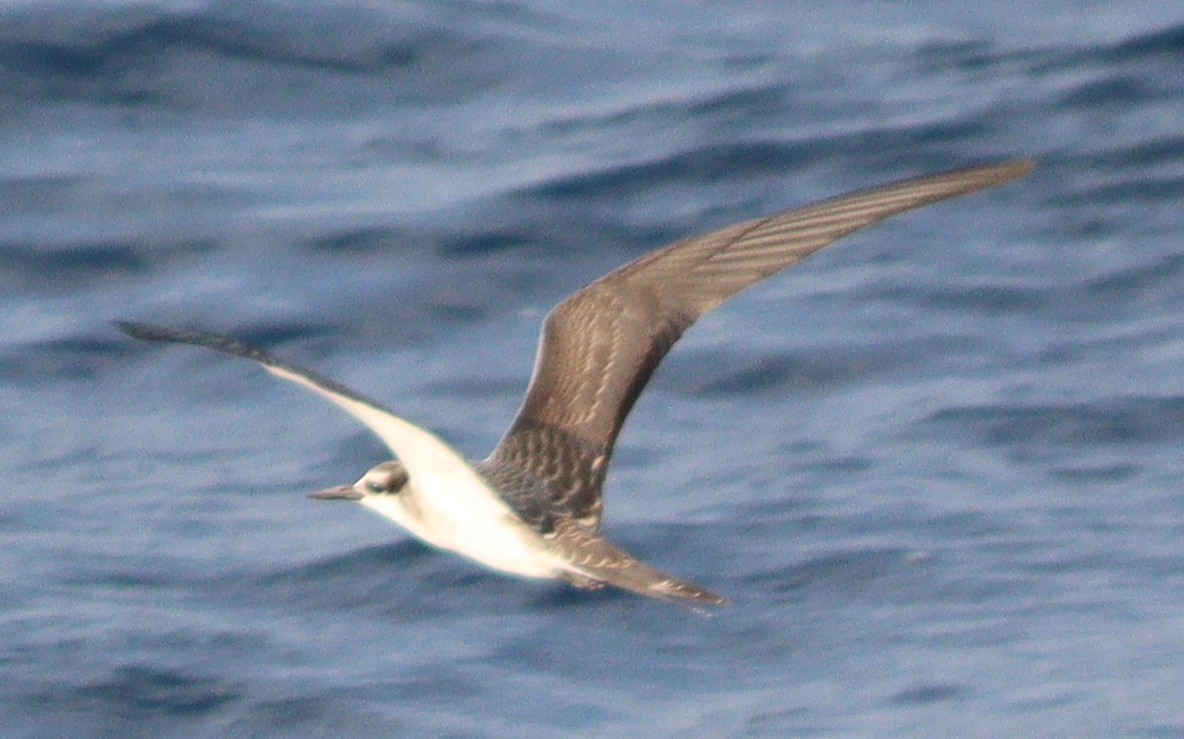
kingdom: Animalia
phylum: Chordata
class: Aves
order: Charadriiformes
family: Laridae
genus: Onychoprion
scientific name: Onychoprion anaethetus
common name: Bridled tern
